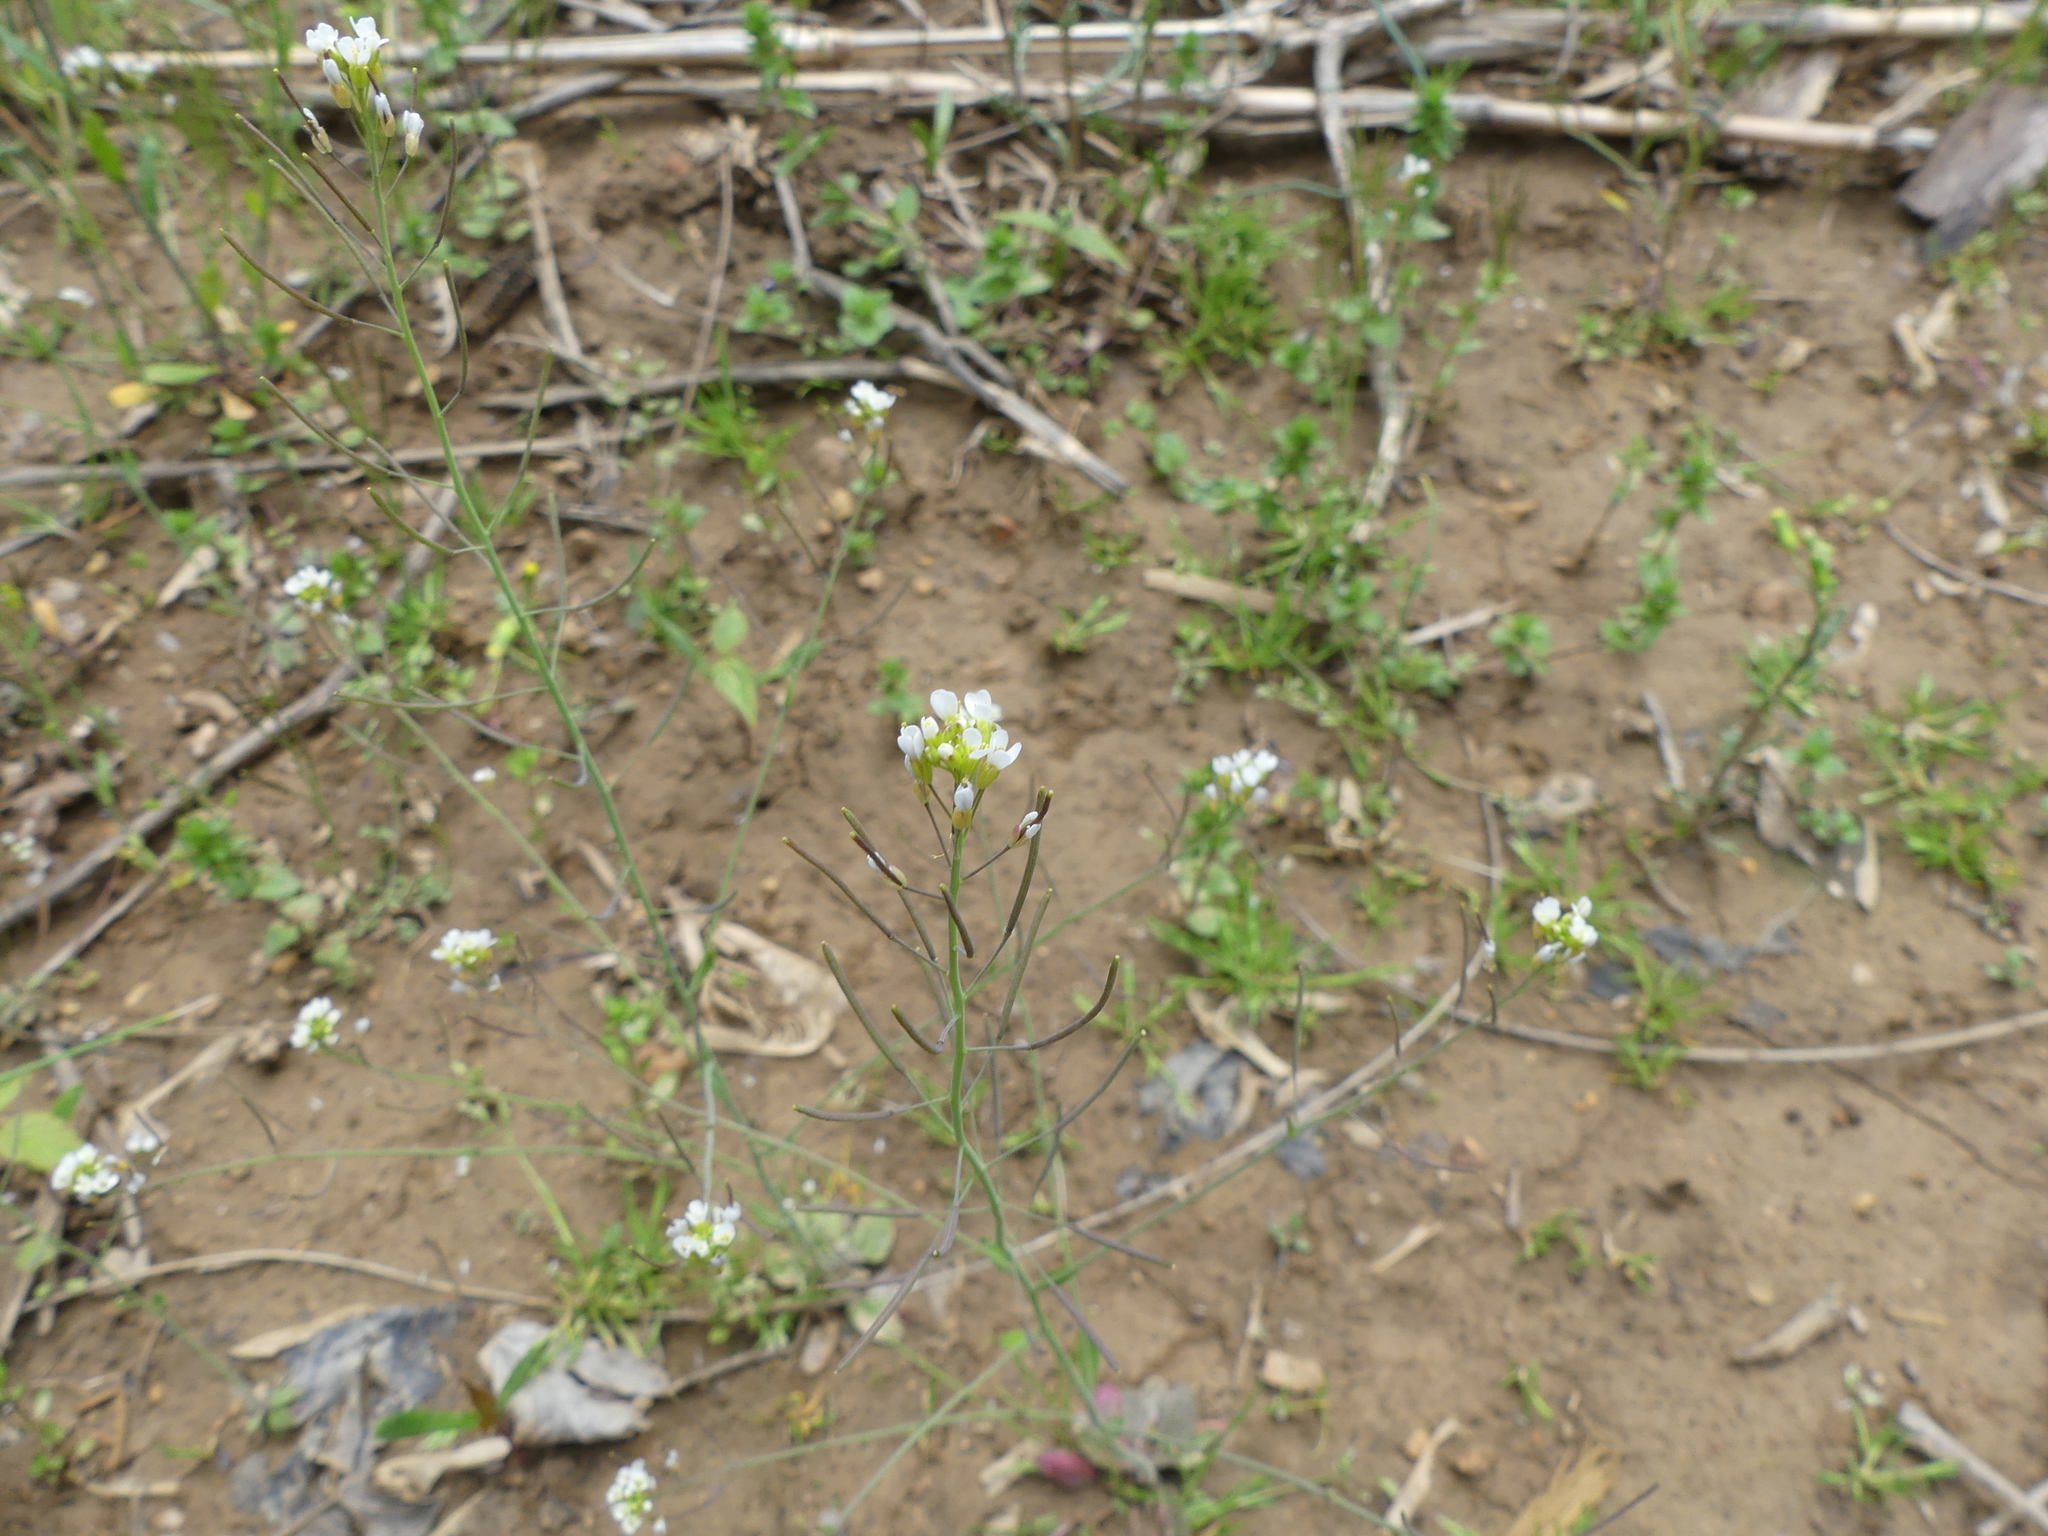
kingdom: Plantae
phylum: Tracheophyta
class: Magnoliopsida
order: Brassicales
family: Brassicaceae
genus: Arabidopsis
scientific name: Arabidopsis thaliana
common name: Thale cress
